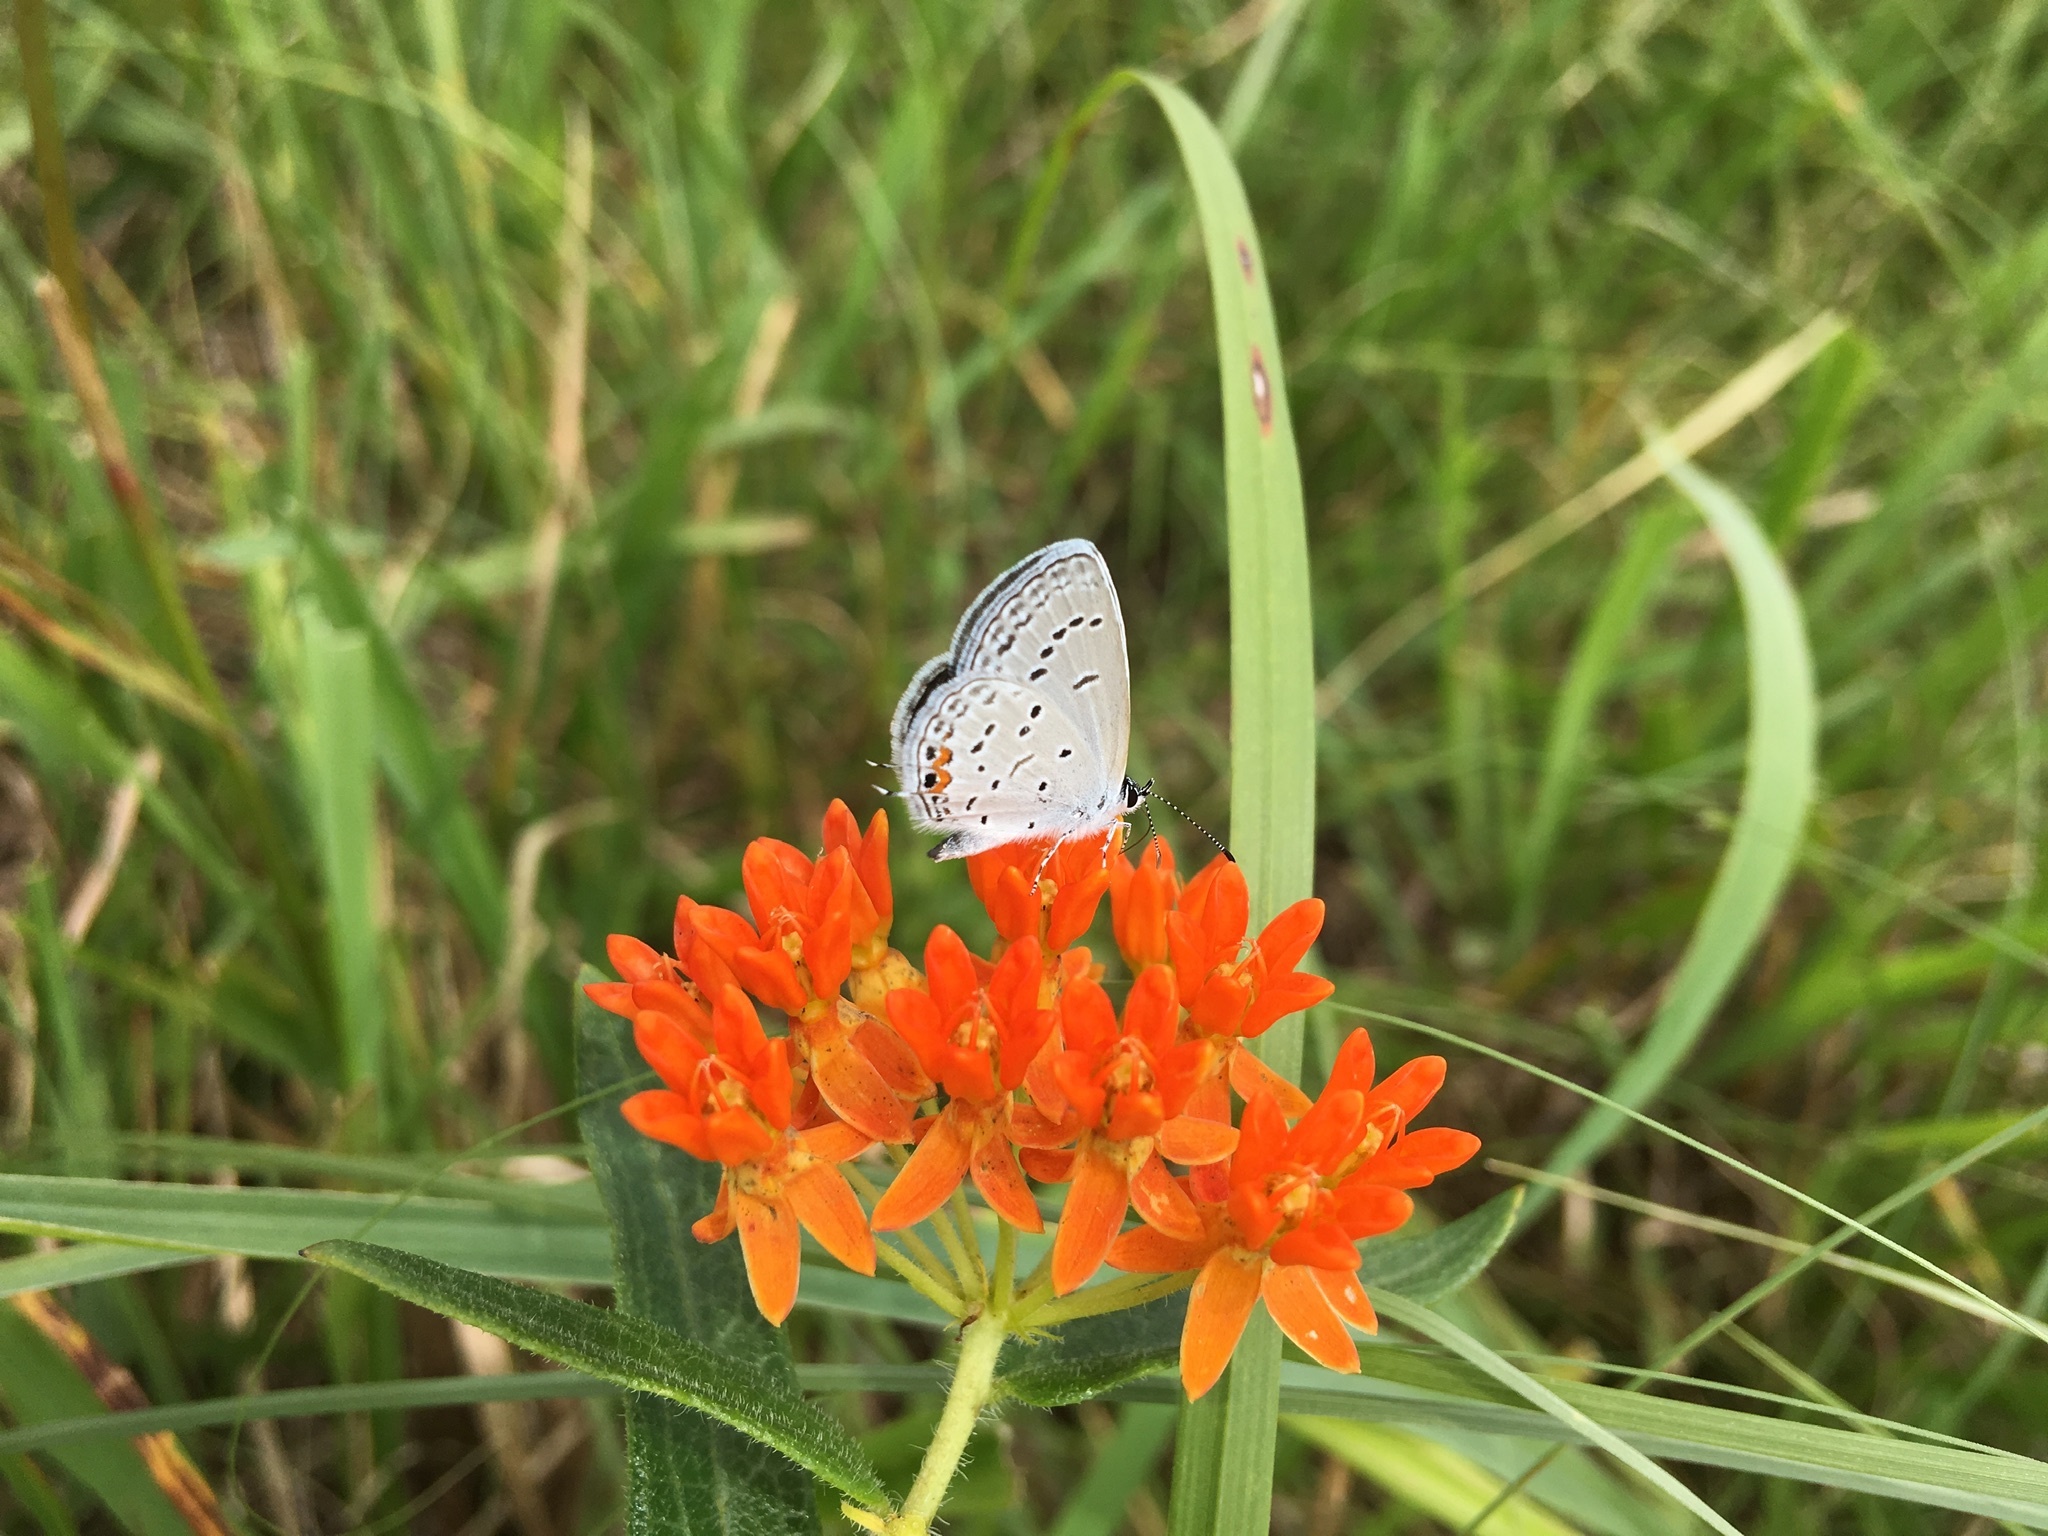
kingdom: Animalia
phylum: Arthropoda
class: Insecta
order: Lepidoptera
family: Lycaenidae
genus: Elkalyce
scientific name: Elkalyce comyntas
